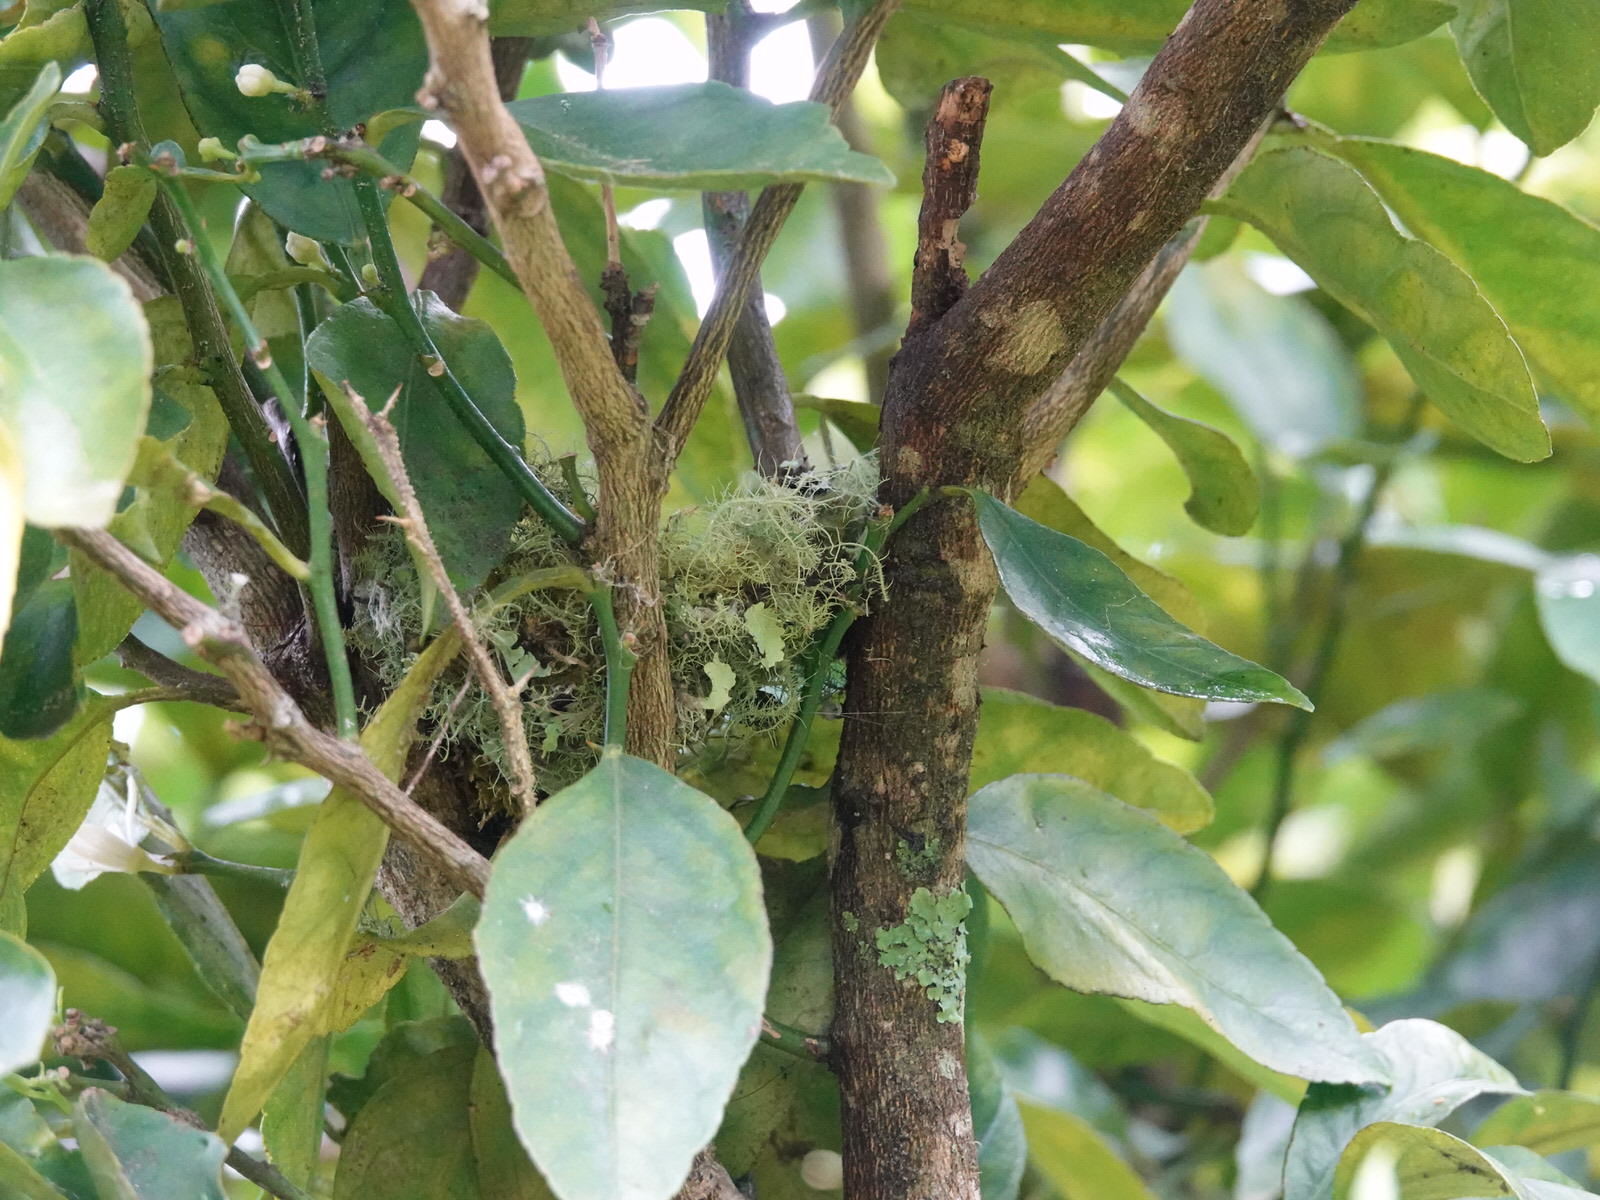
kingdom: Animalia
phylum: Chordata
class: Aves
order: Passeriformes
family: Fringillidae
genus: Fringilla
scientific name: Fringilla coelebs
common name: Common chaffinch
